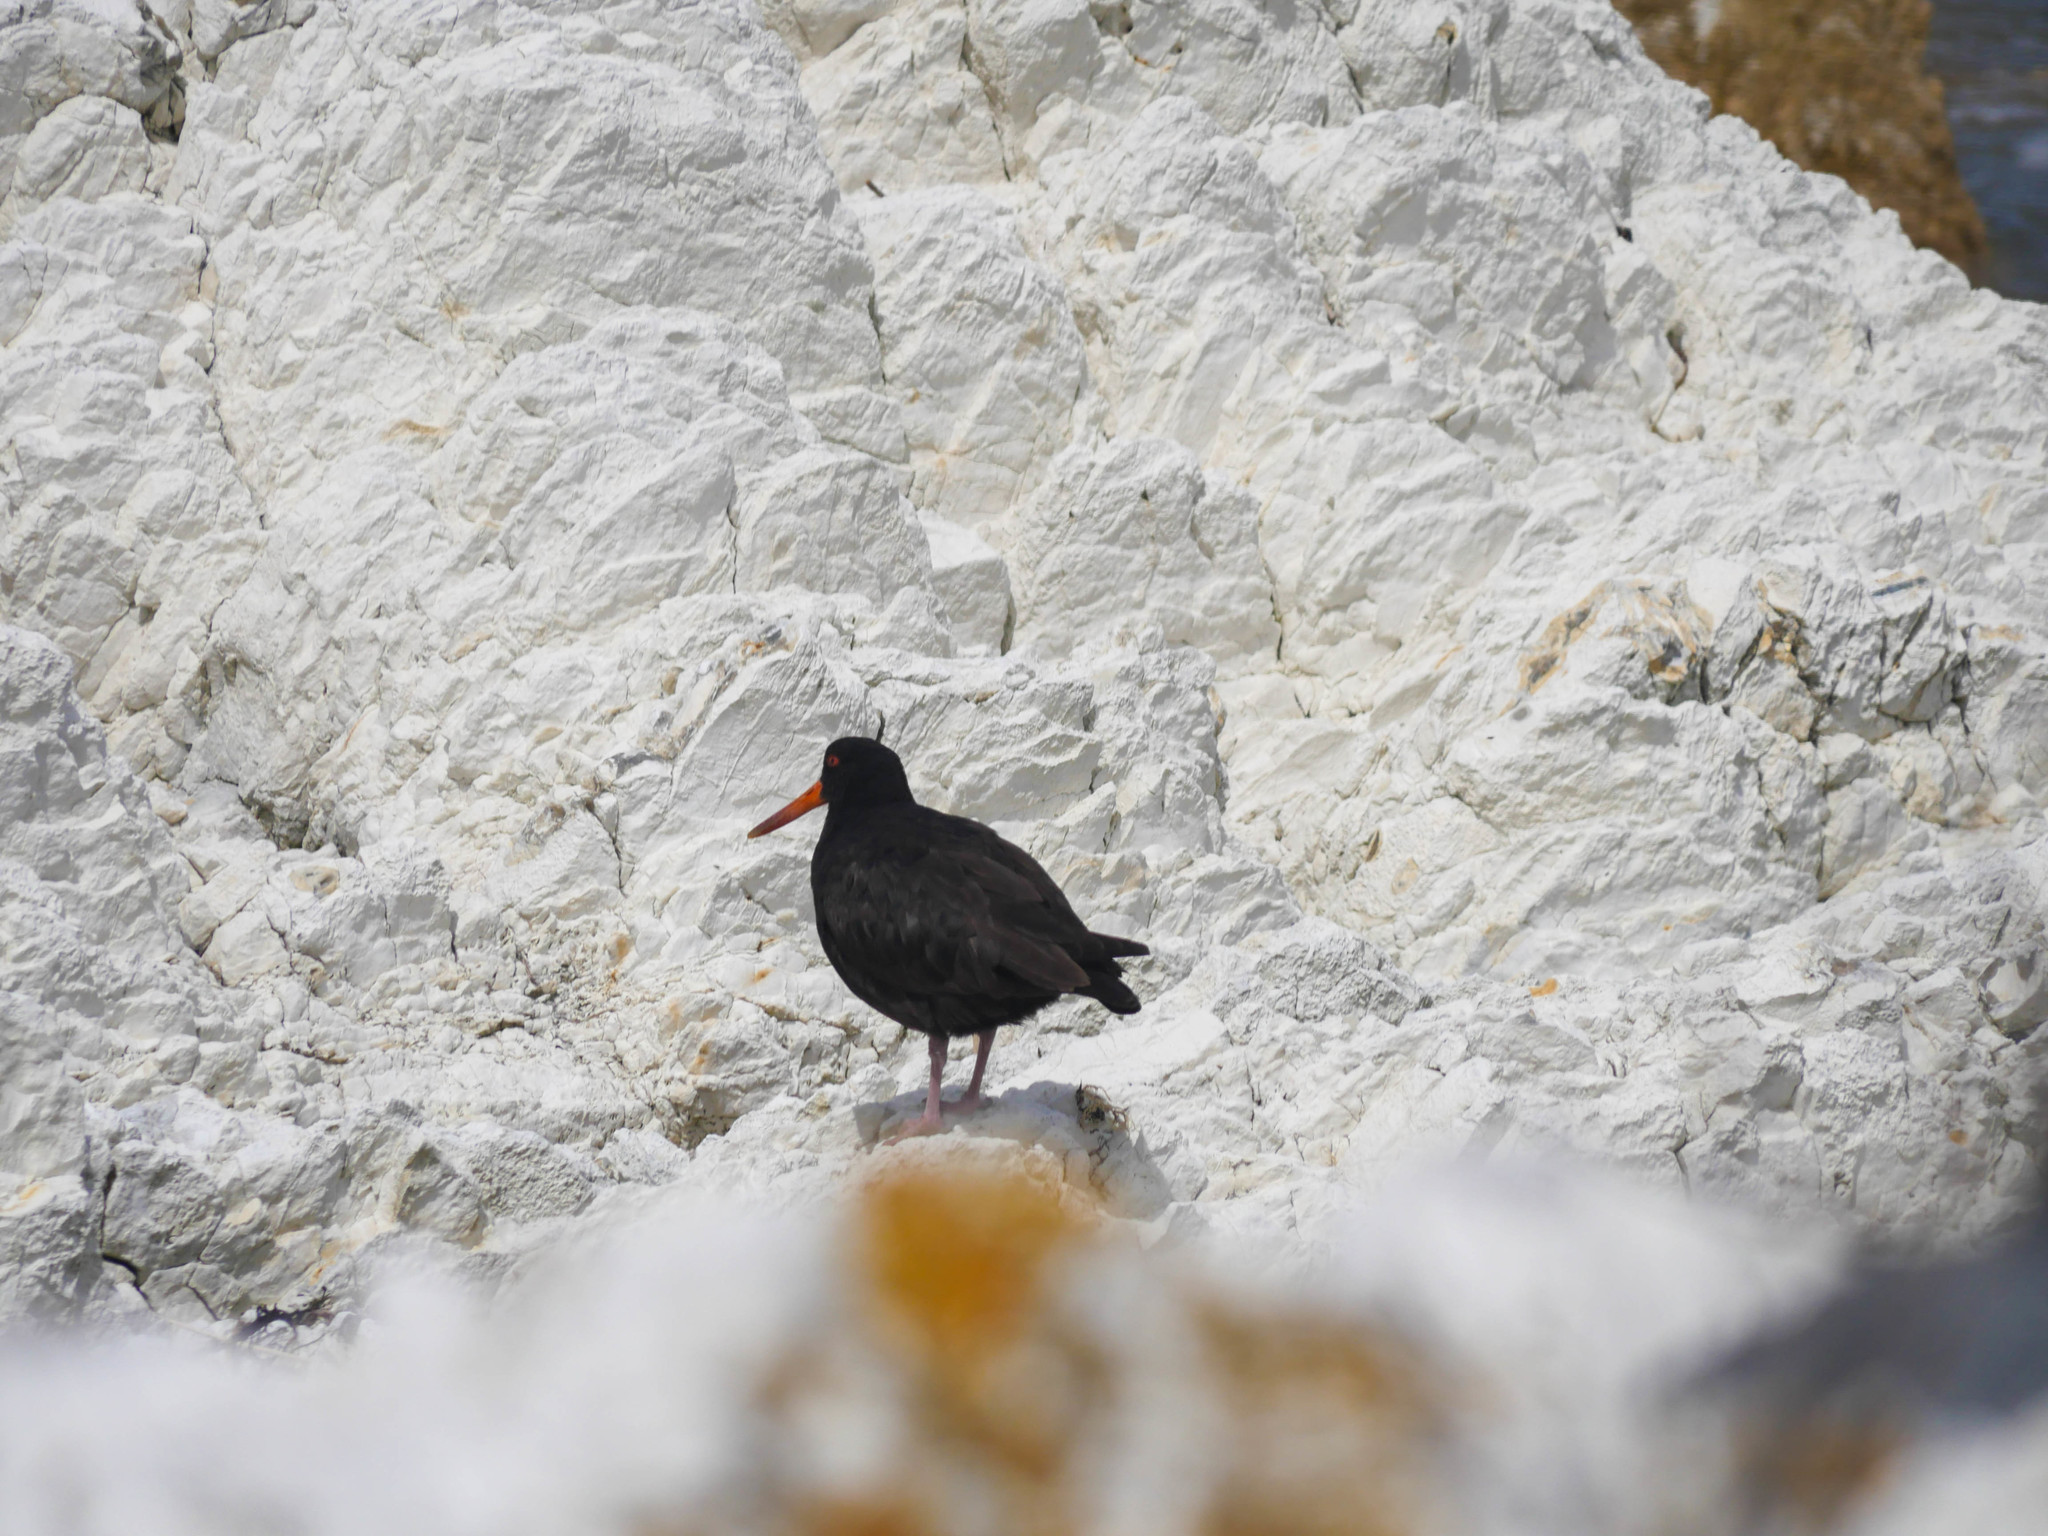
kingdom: Animalia
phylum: Chordata
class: Aves
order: Charadriiformes
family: Haematopodidae
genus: Haematopus
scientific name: Haematopus unicolor
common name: Variable oystercatcher
